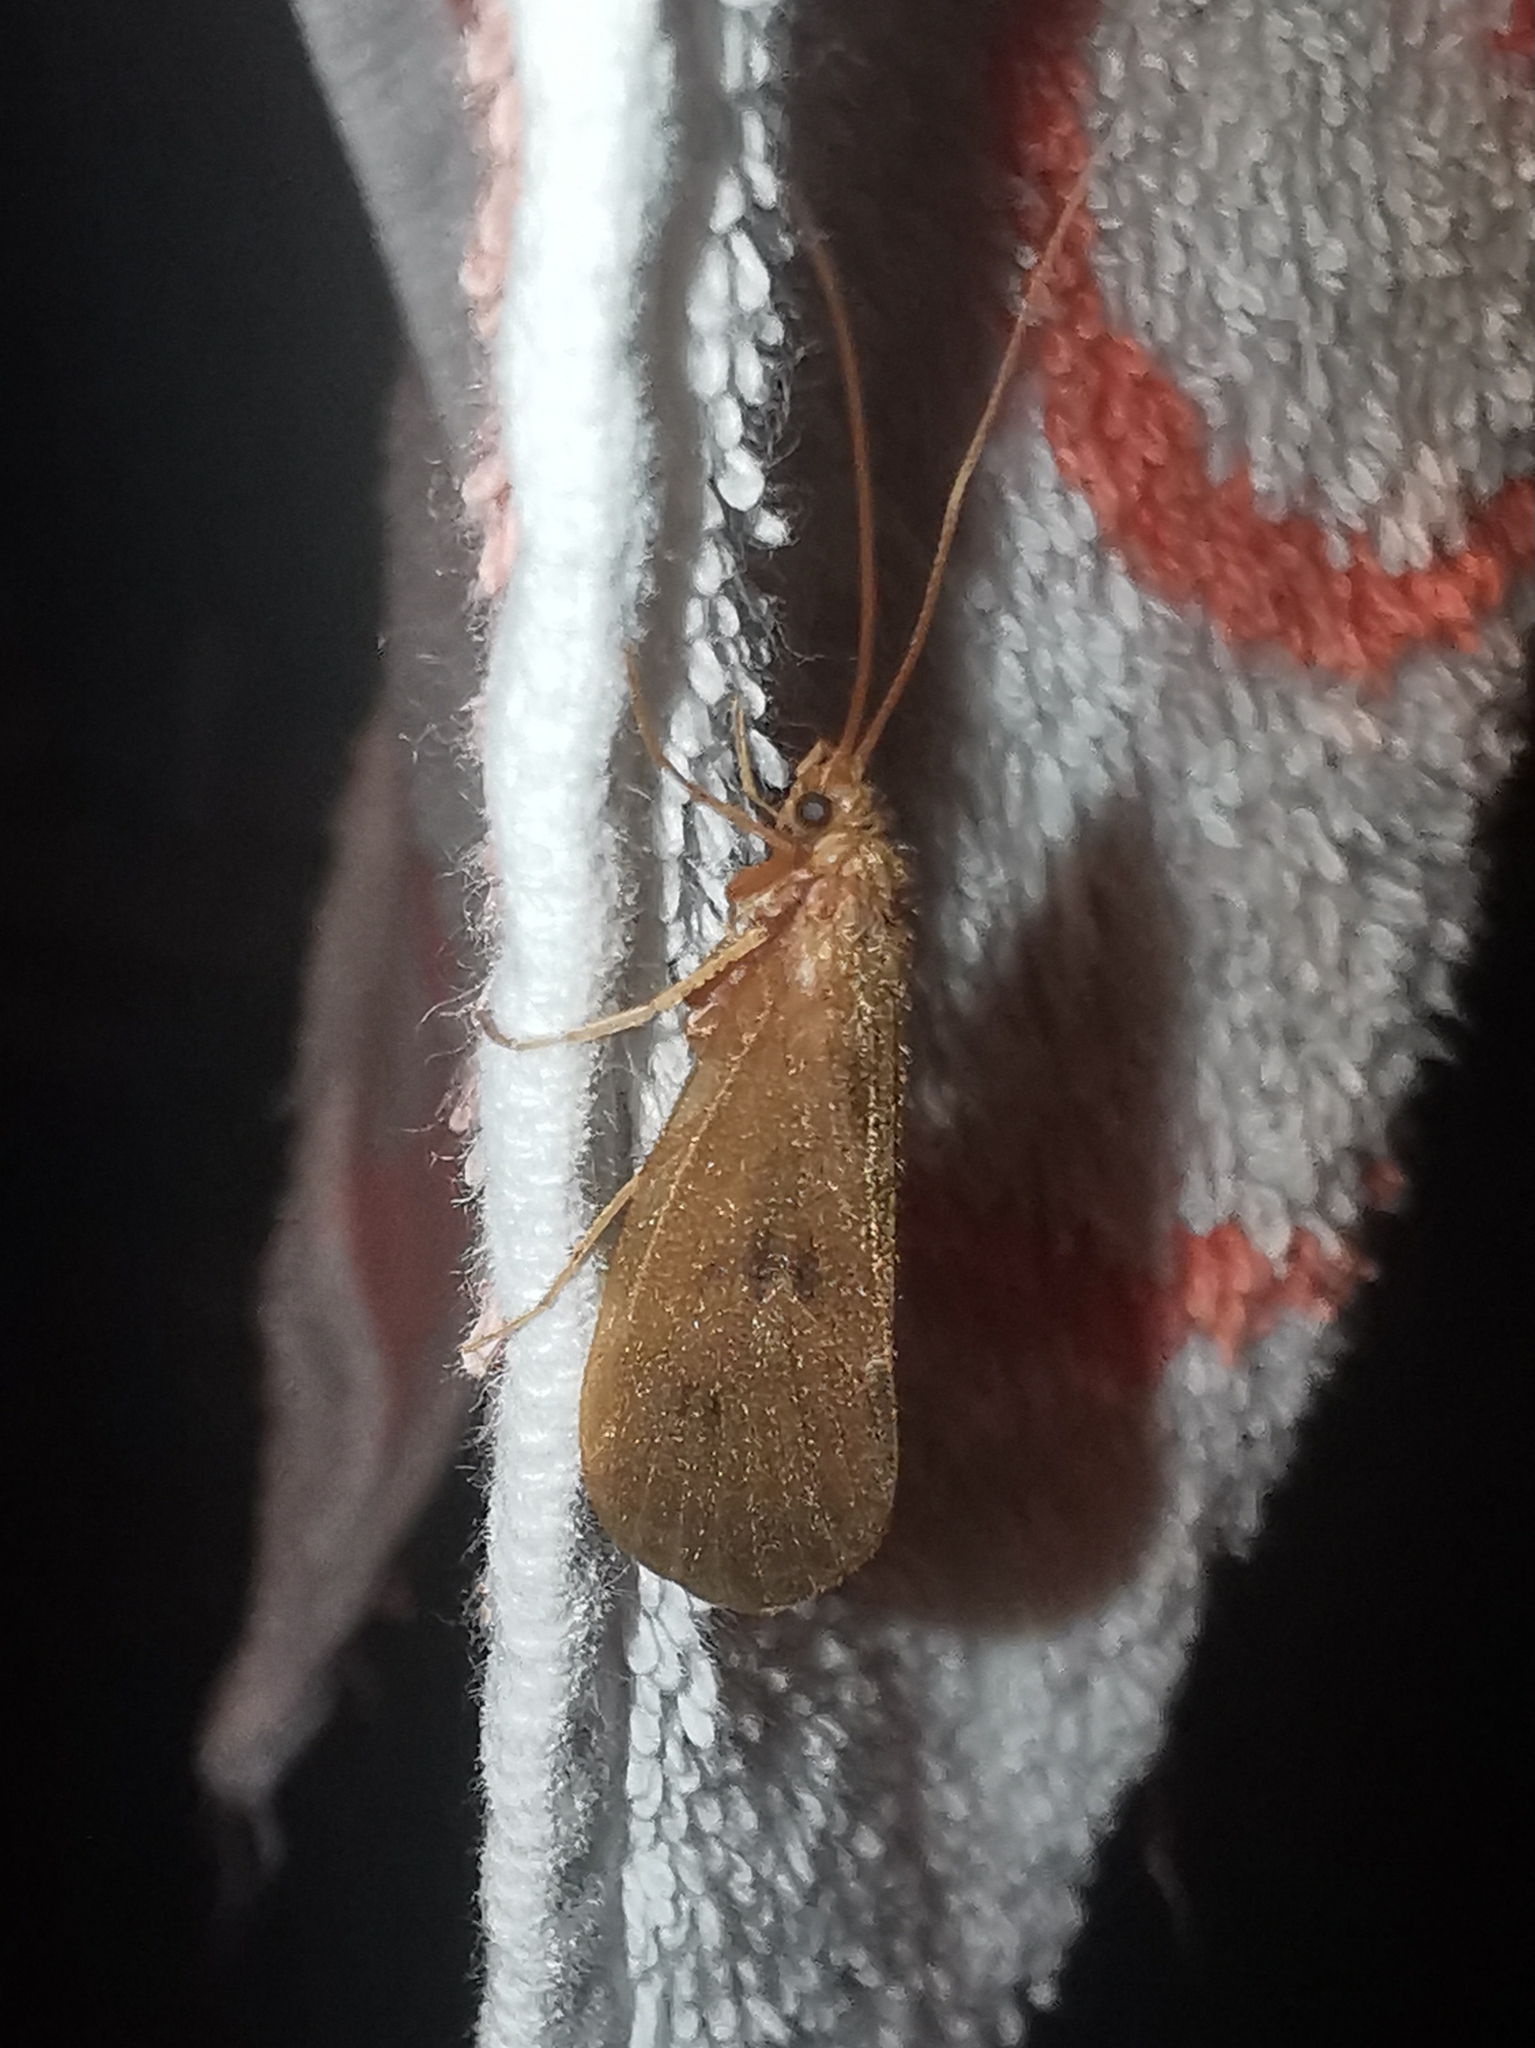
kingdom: Animalia
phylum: Arthropoda
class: Insecta
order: Trichoptera
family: Limnephilidae
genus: Onocosmoecus
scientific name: Onocosmoecus unicolor
